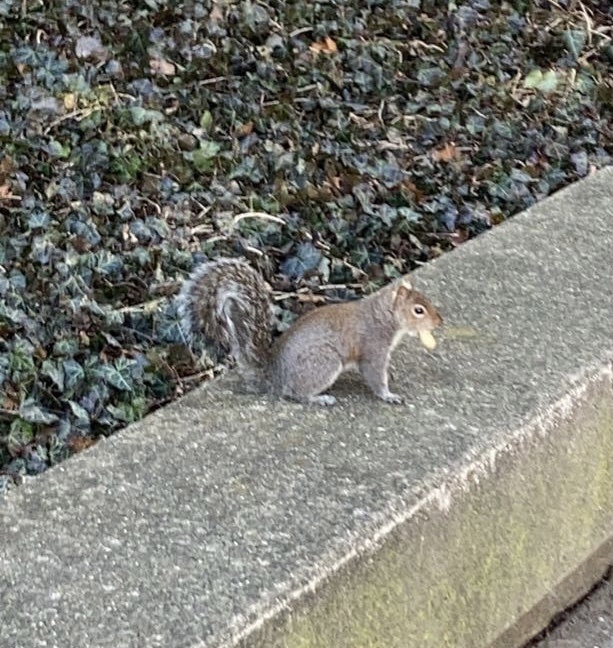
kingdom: Animalia
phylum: Chordata
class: Mammalia
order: Rodentia
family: Sciuridae
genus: Sciurus
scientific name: Sciurus carolinensis
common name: Eastern gray squirrel
